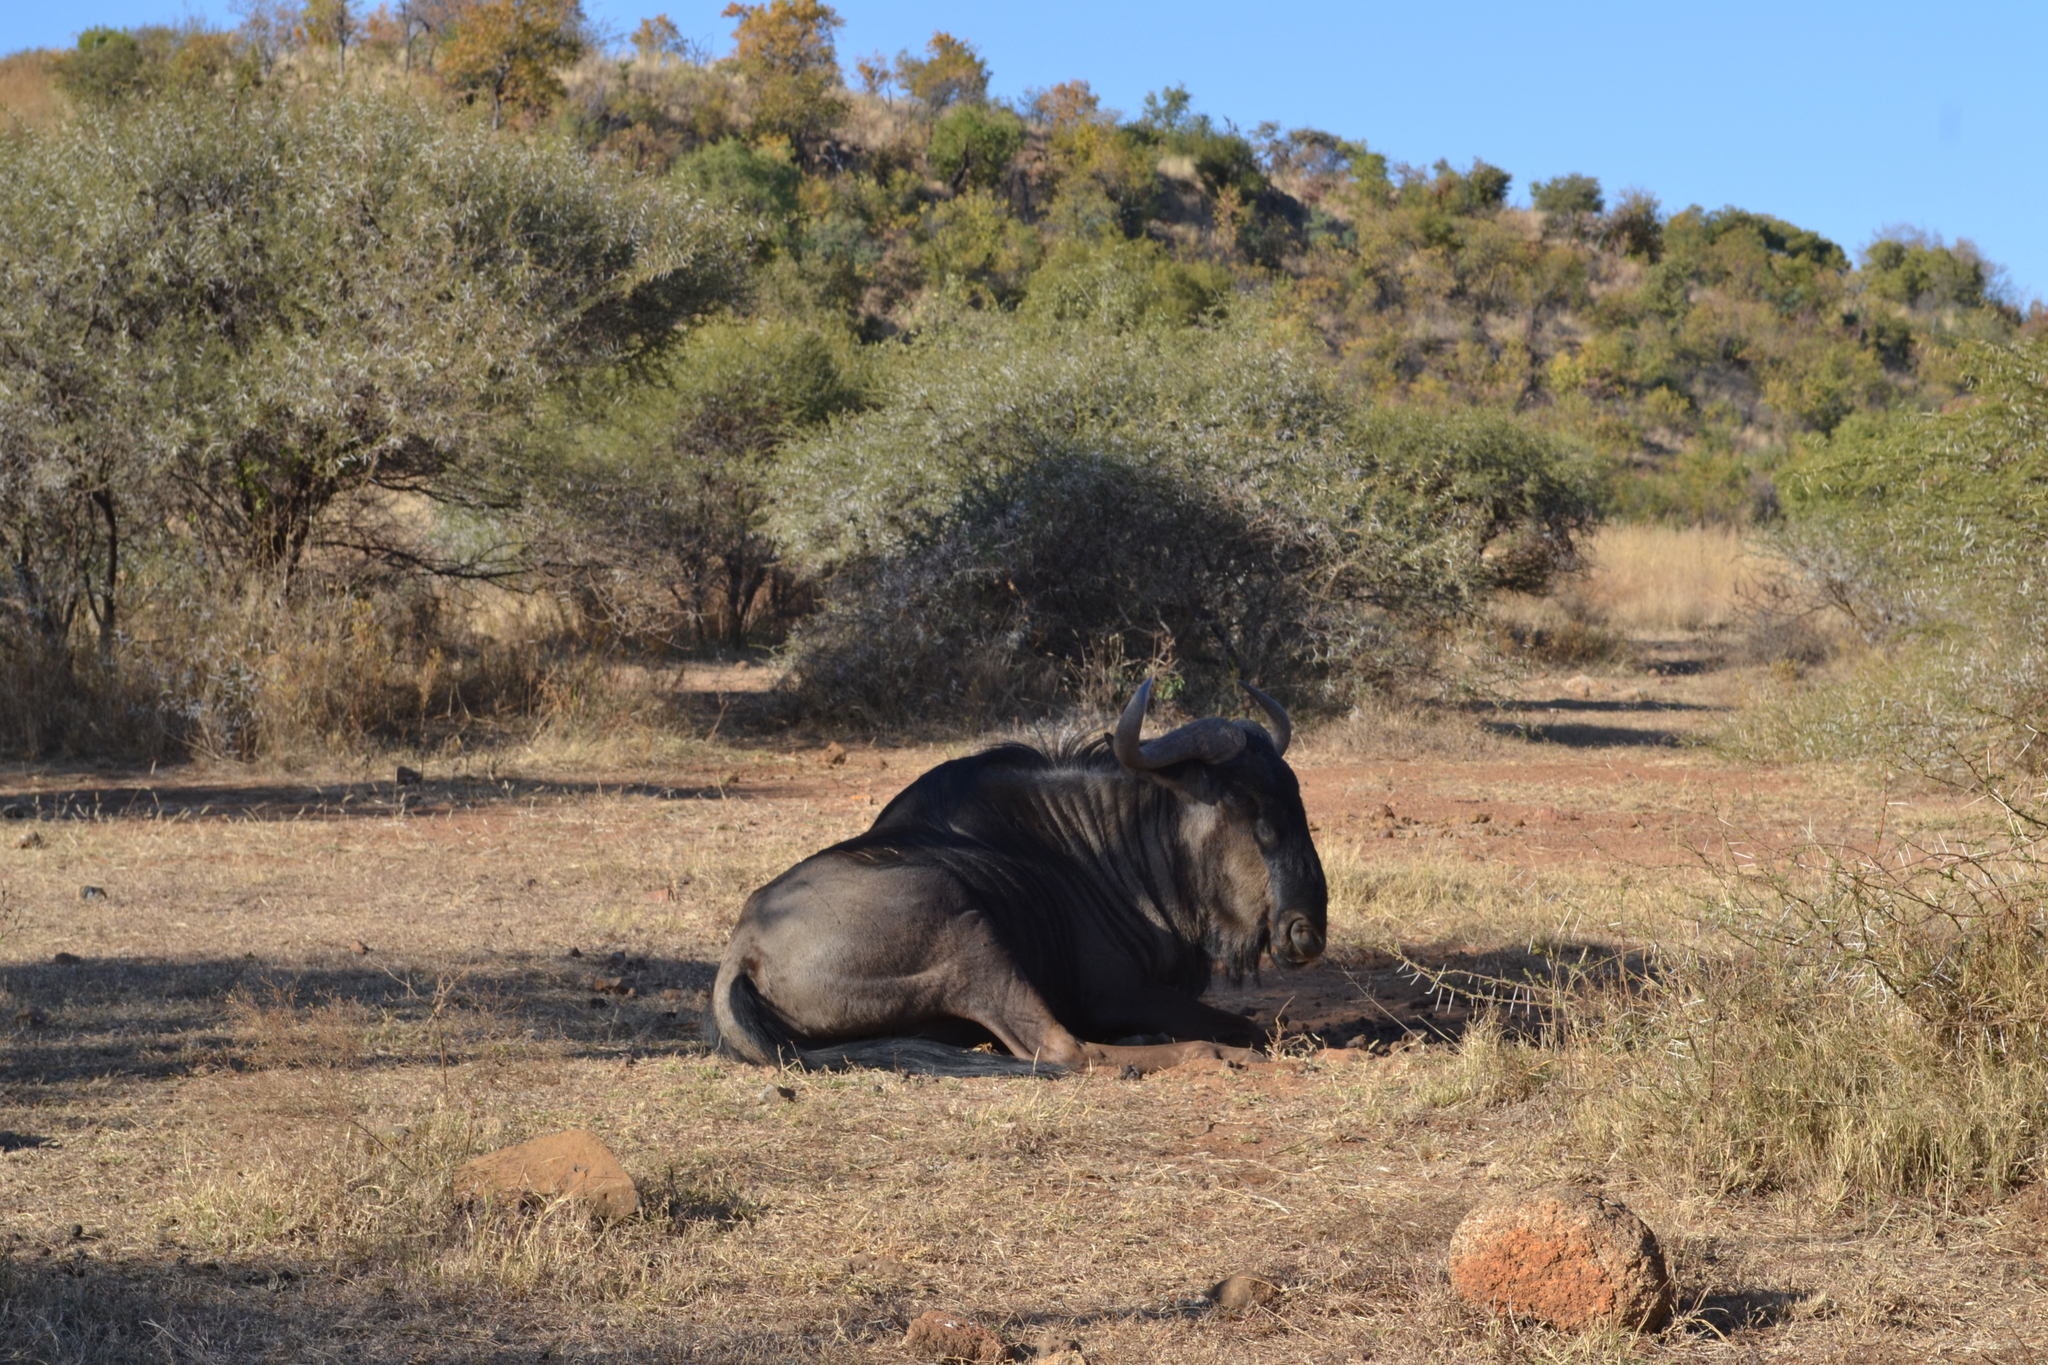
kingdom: Animalia
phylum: Chordata
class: Mammalia
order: Artiodactyla
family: Bovidae
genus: Connochaetes
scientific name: Connochaetes taurinus
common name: Blue wildebeest
